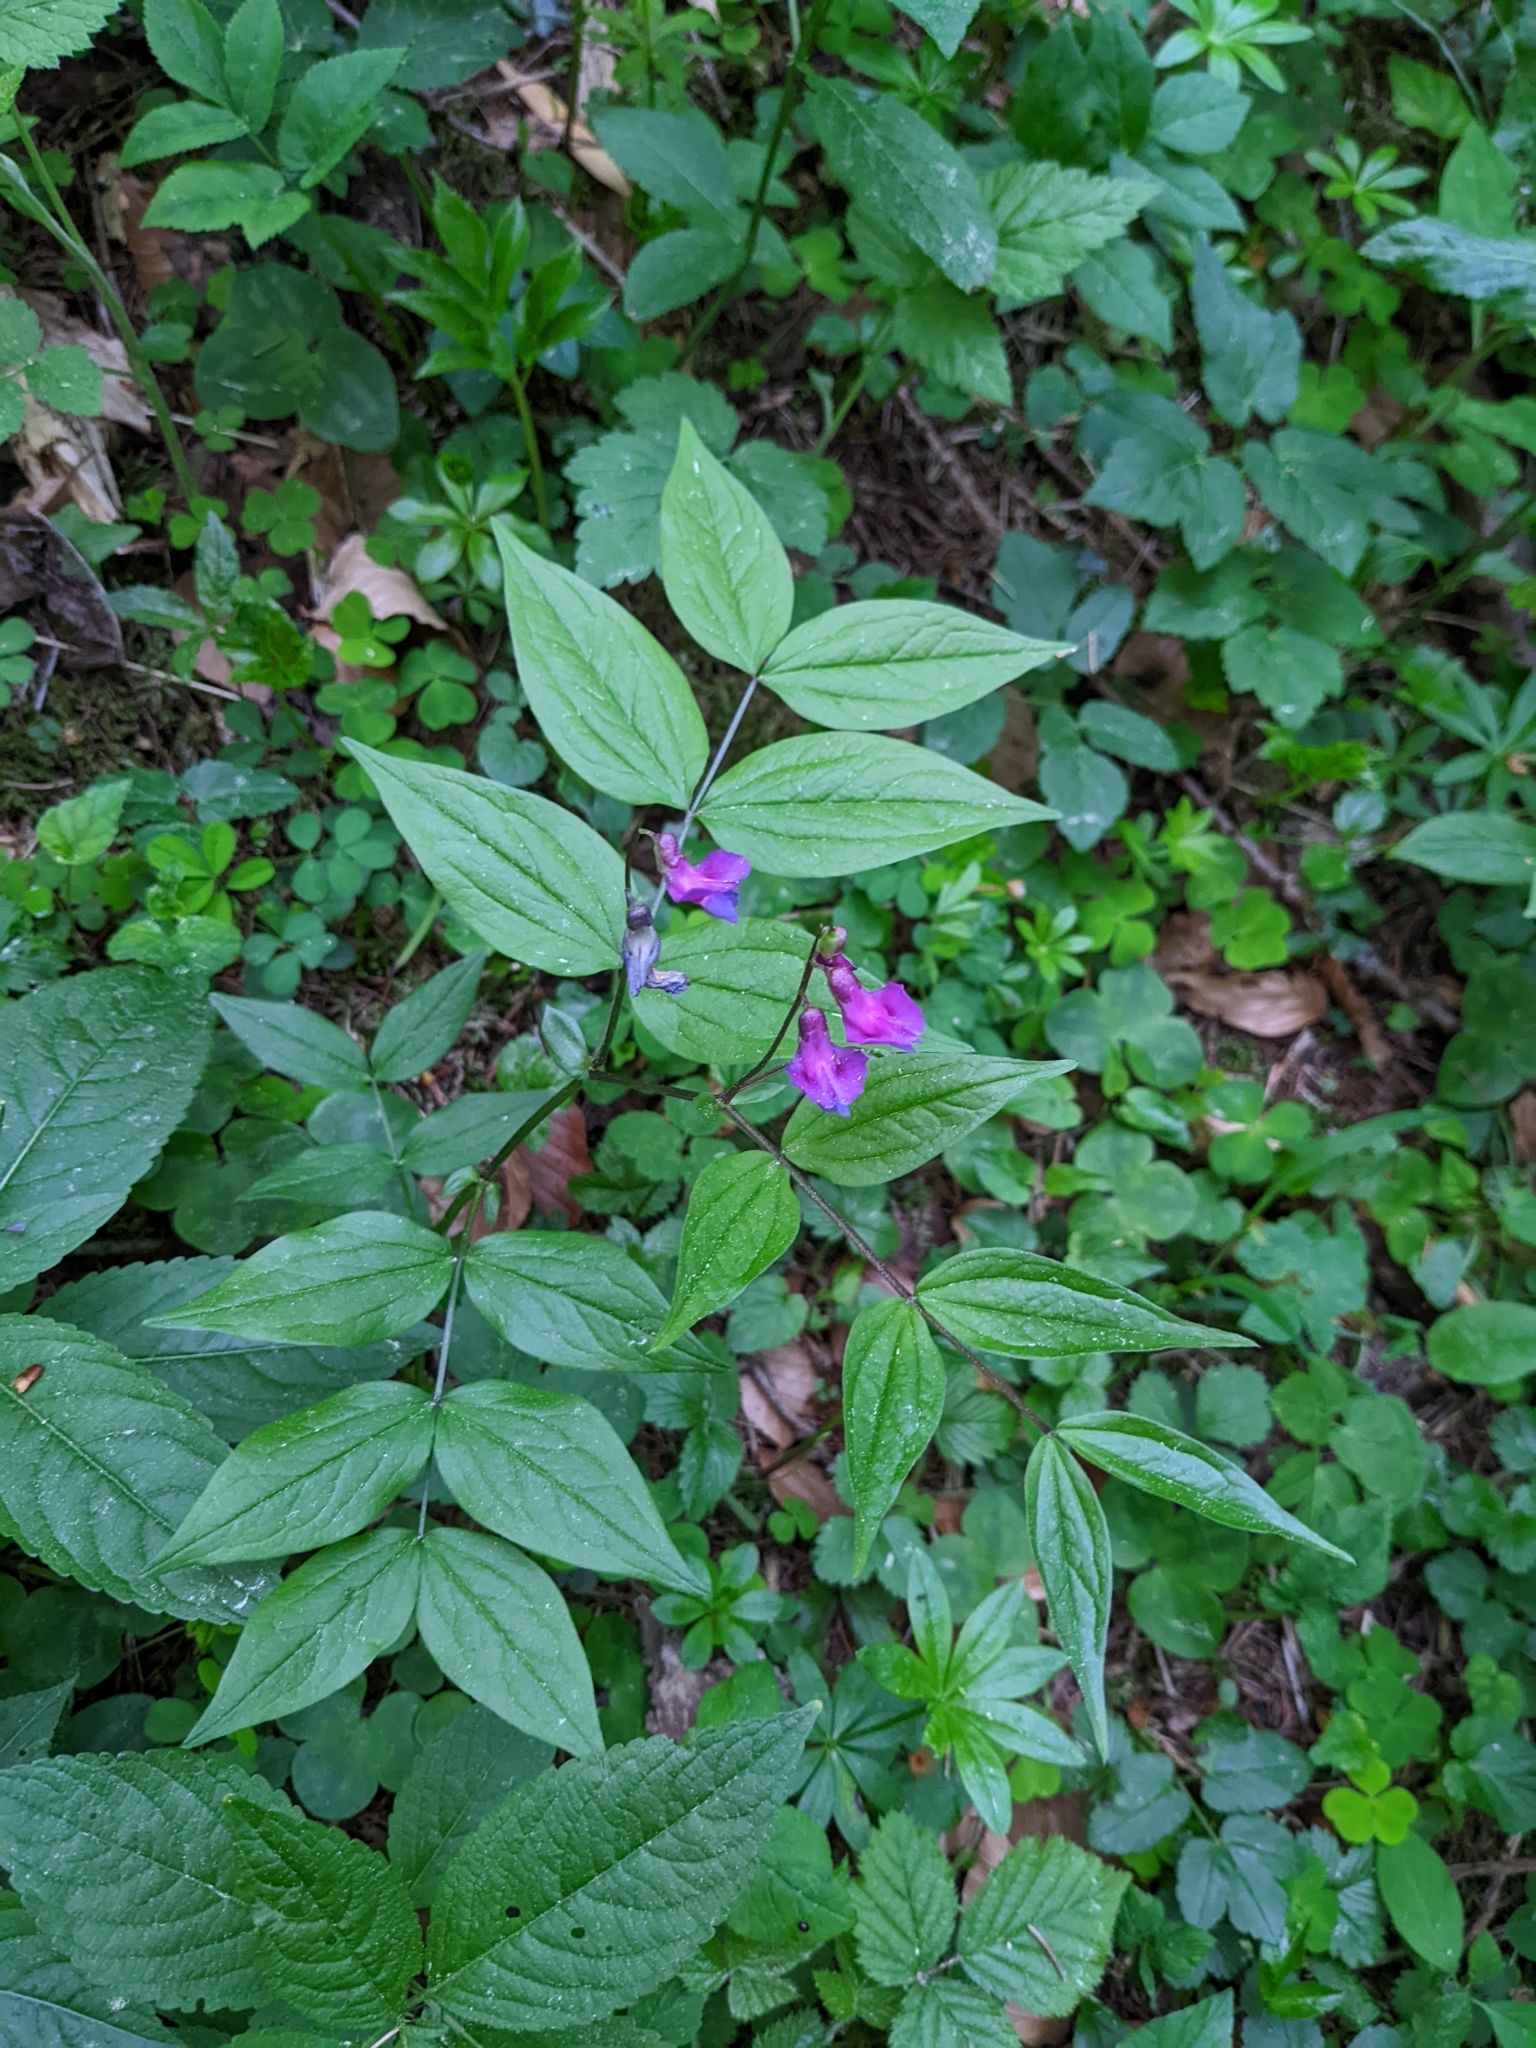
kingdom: Plantae
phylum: Tracheophyta
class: Magnoliopsida
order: Fabales
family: Fabaceae
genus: Lathyrus
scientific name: Lathyrus vernus
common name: Spring pea
